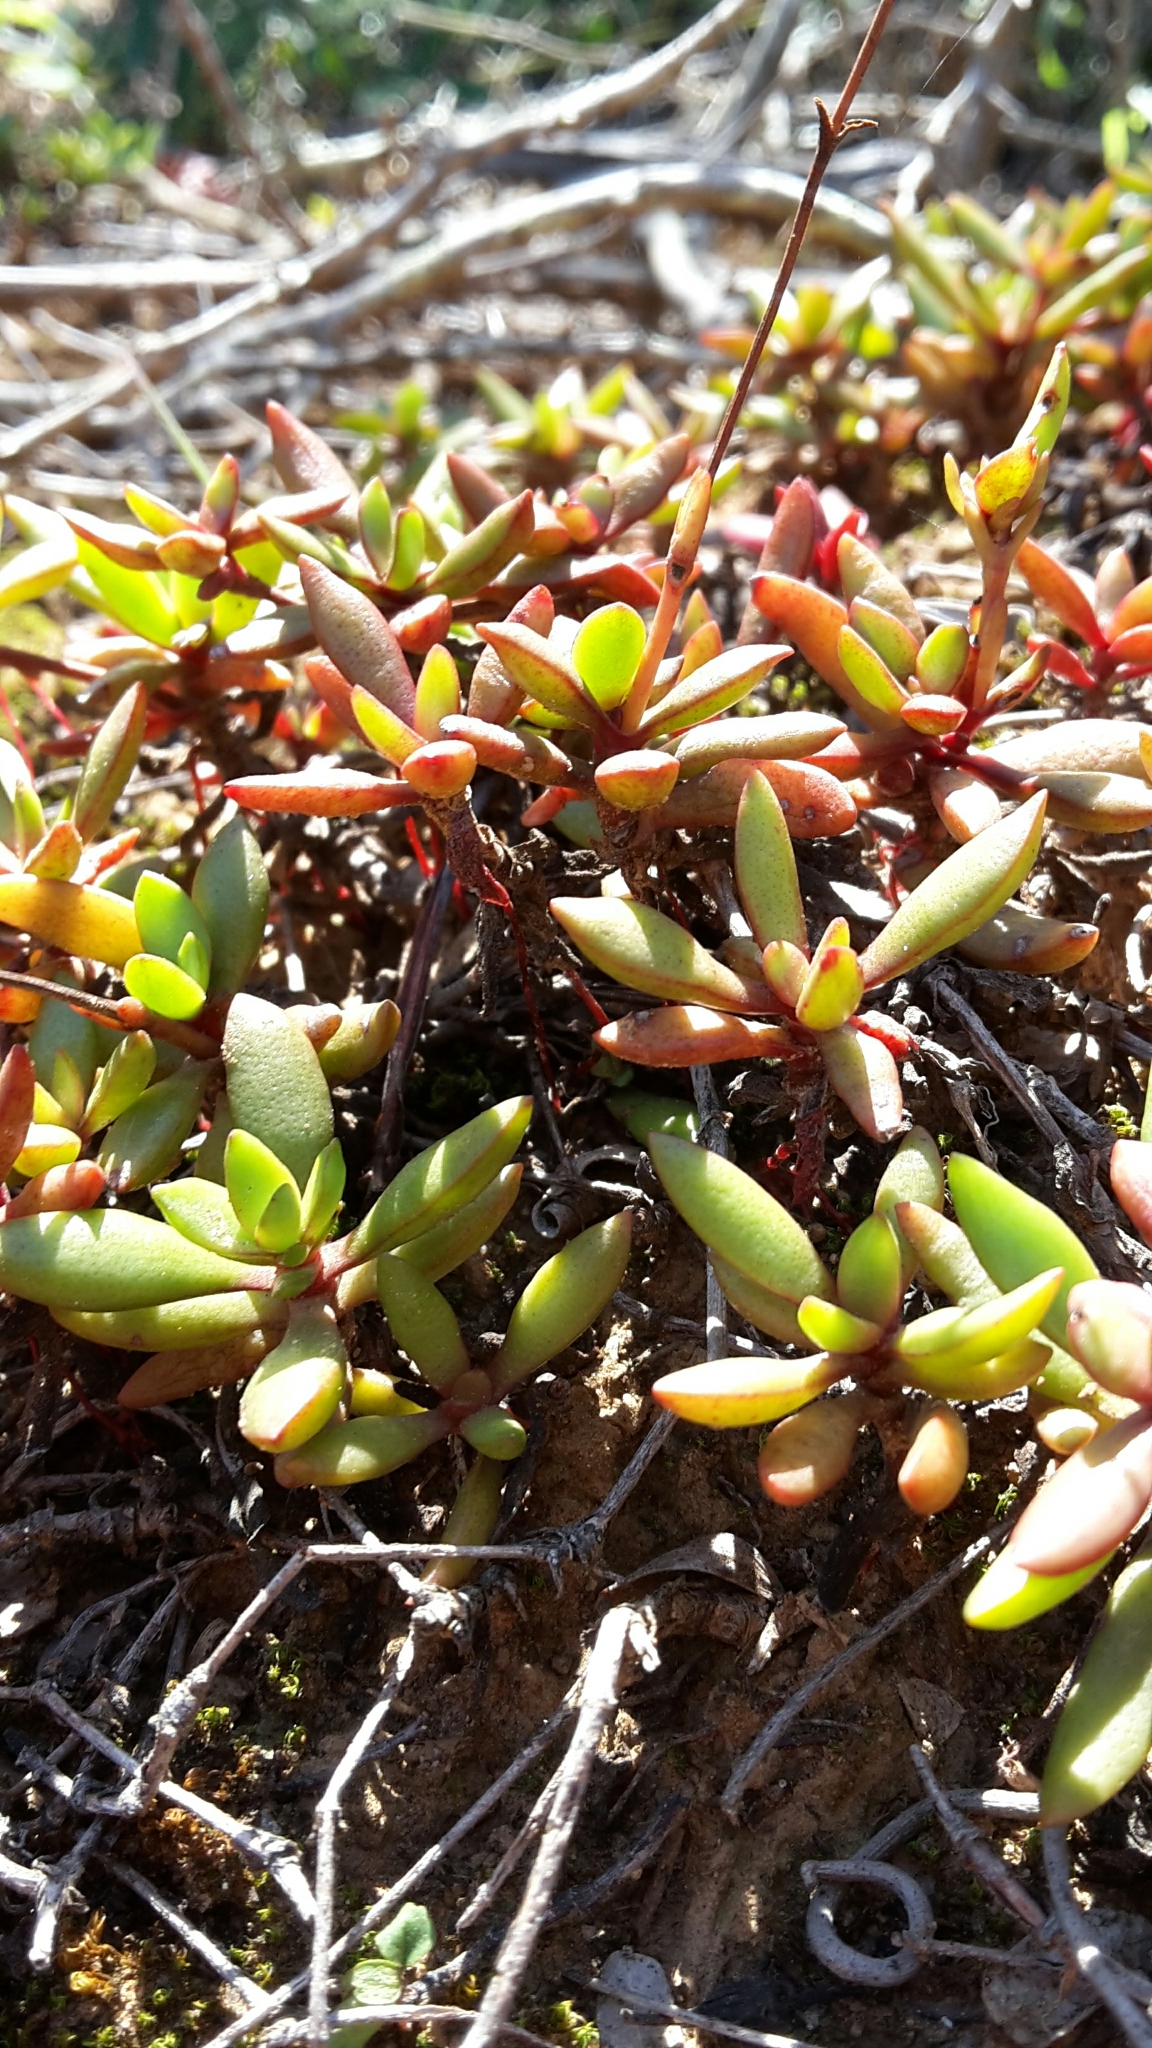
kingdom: Plantae
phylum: Tracheophyta
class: Magnoliopsida
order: Saxifragales
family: Crassulaceae
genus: Crassula
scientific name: Crassula pubescens
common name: Jersey pigmyweed
